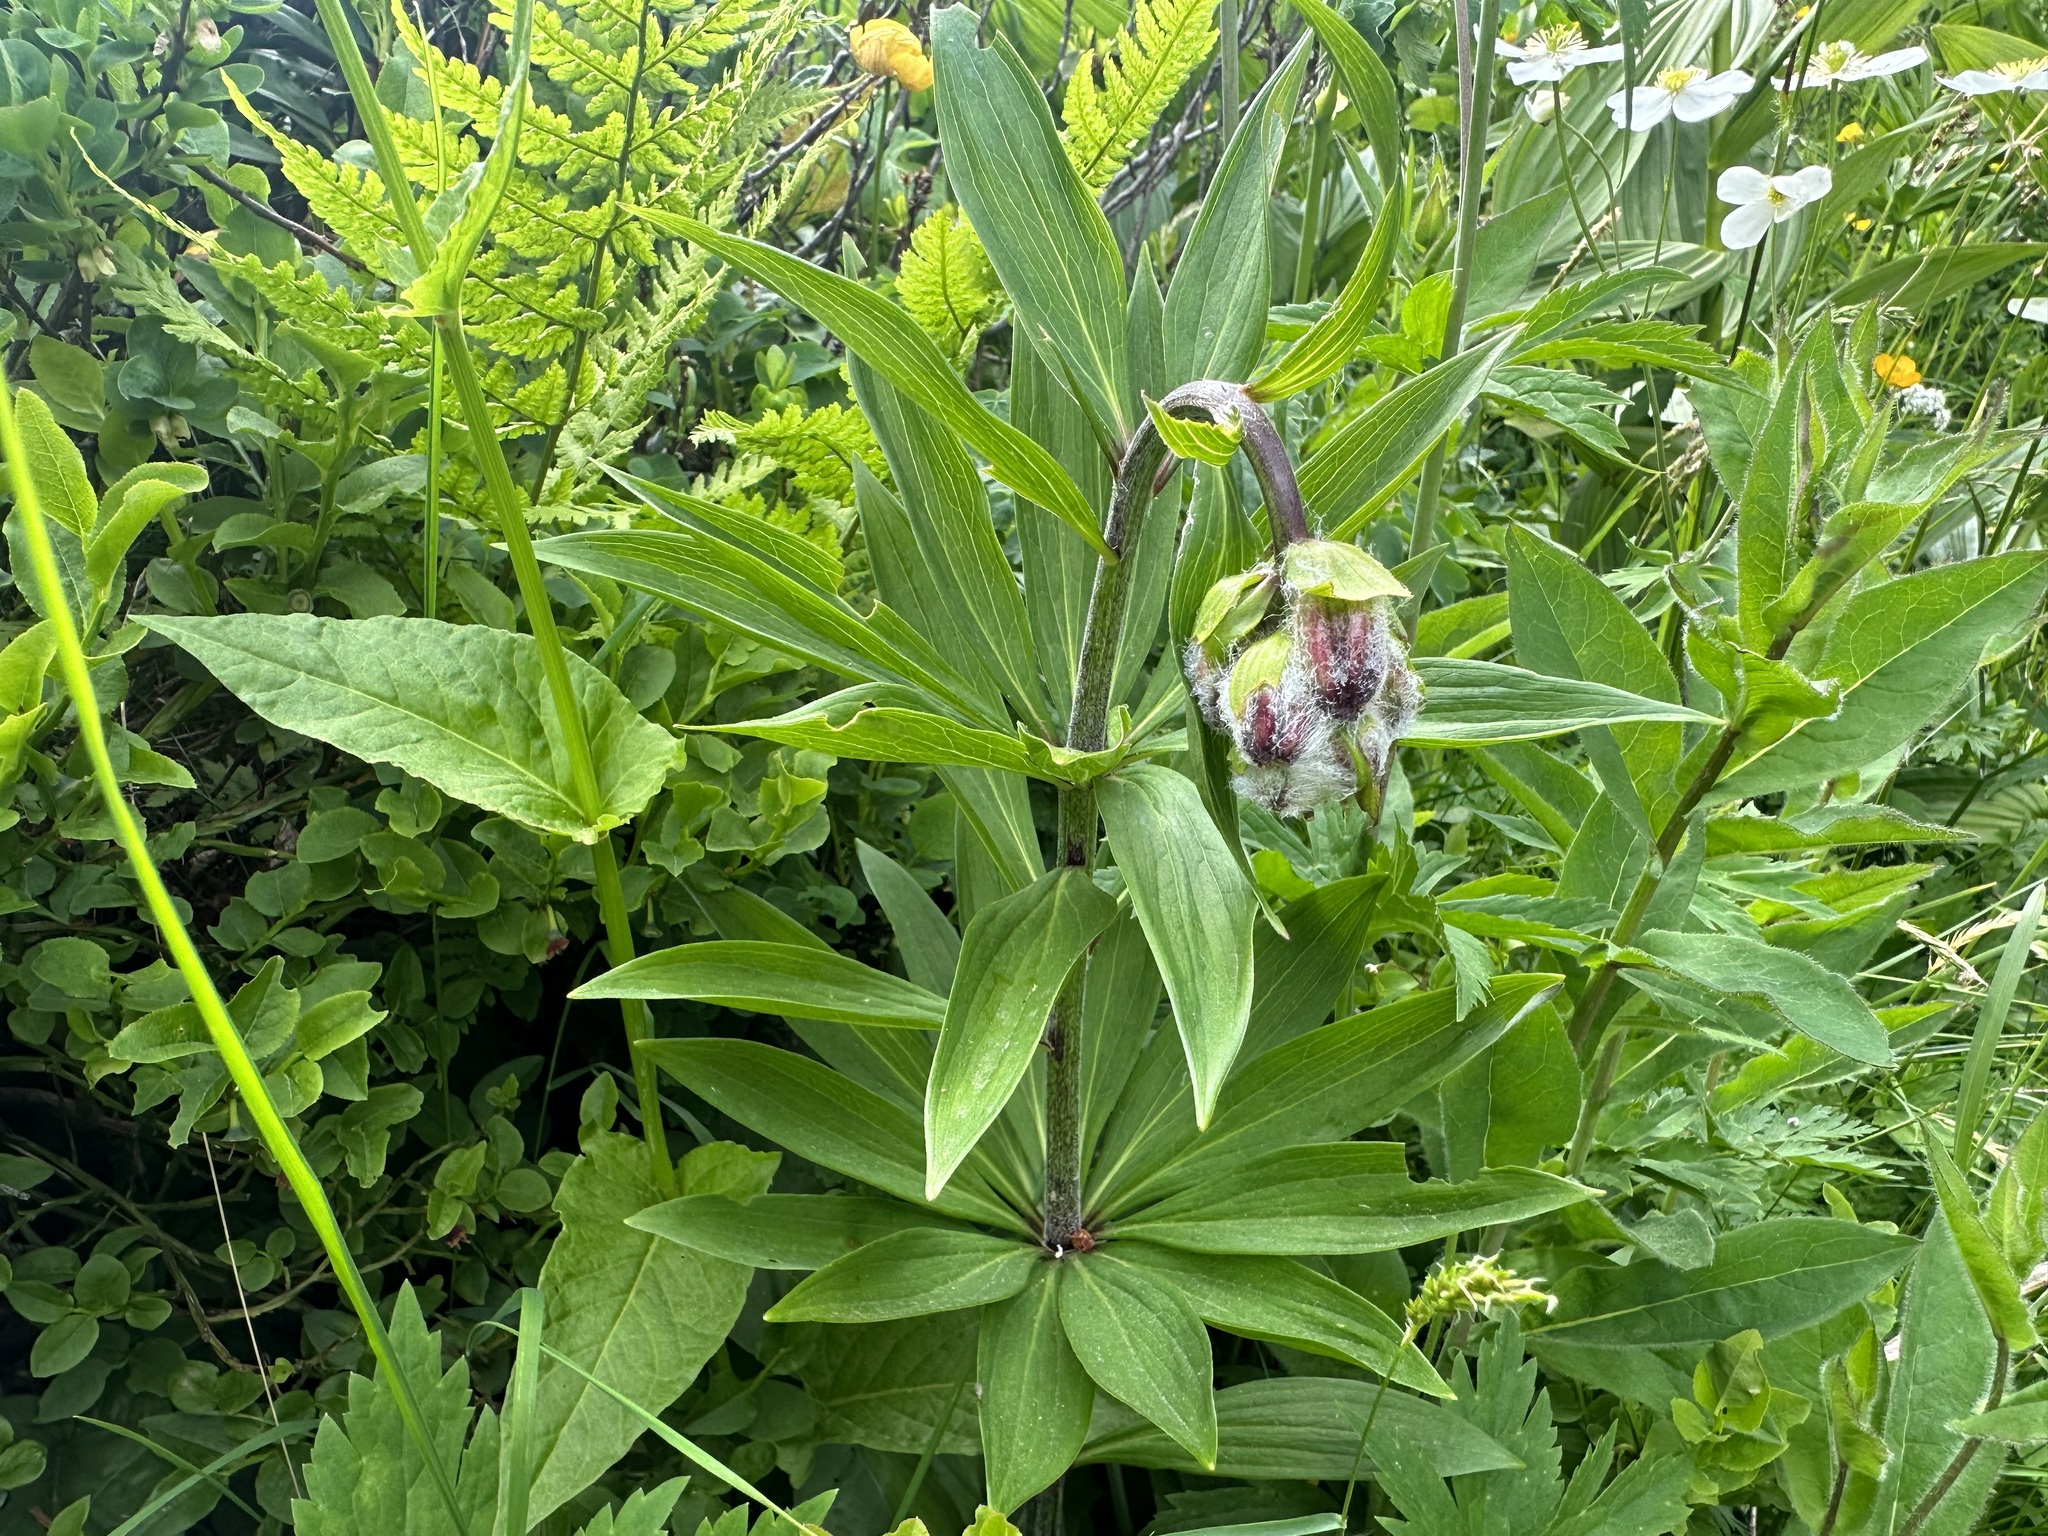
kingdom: Plantae
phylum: Tracheophyta
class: Liliopsida
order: Liliales
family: Liliaceae
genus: Lilium
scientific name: Lilium martagon
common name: Martagon lily
